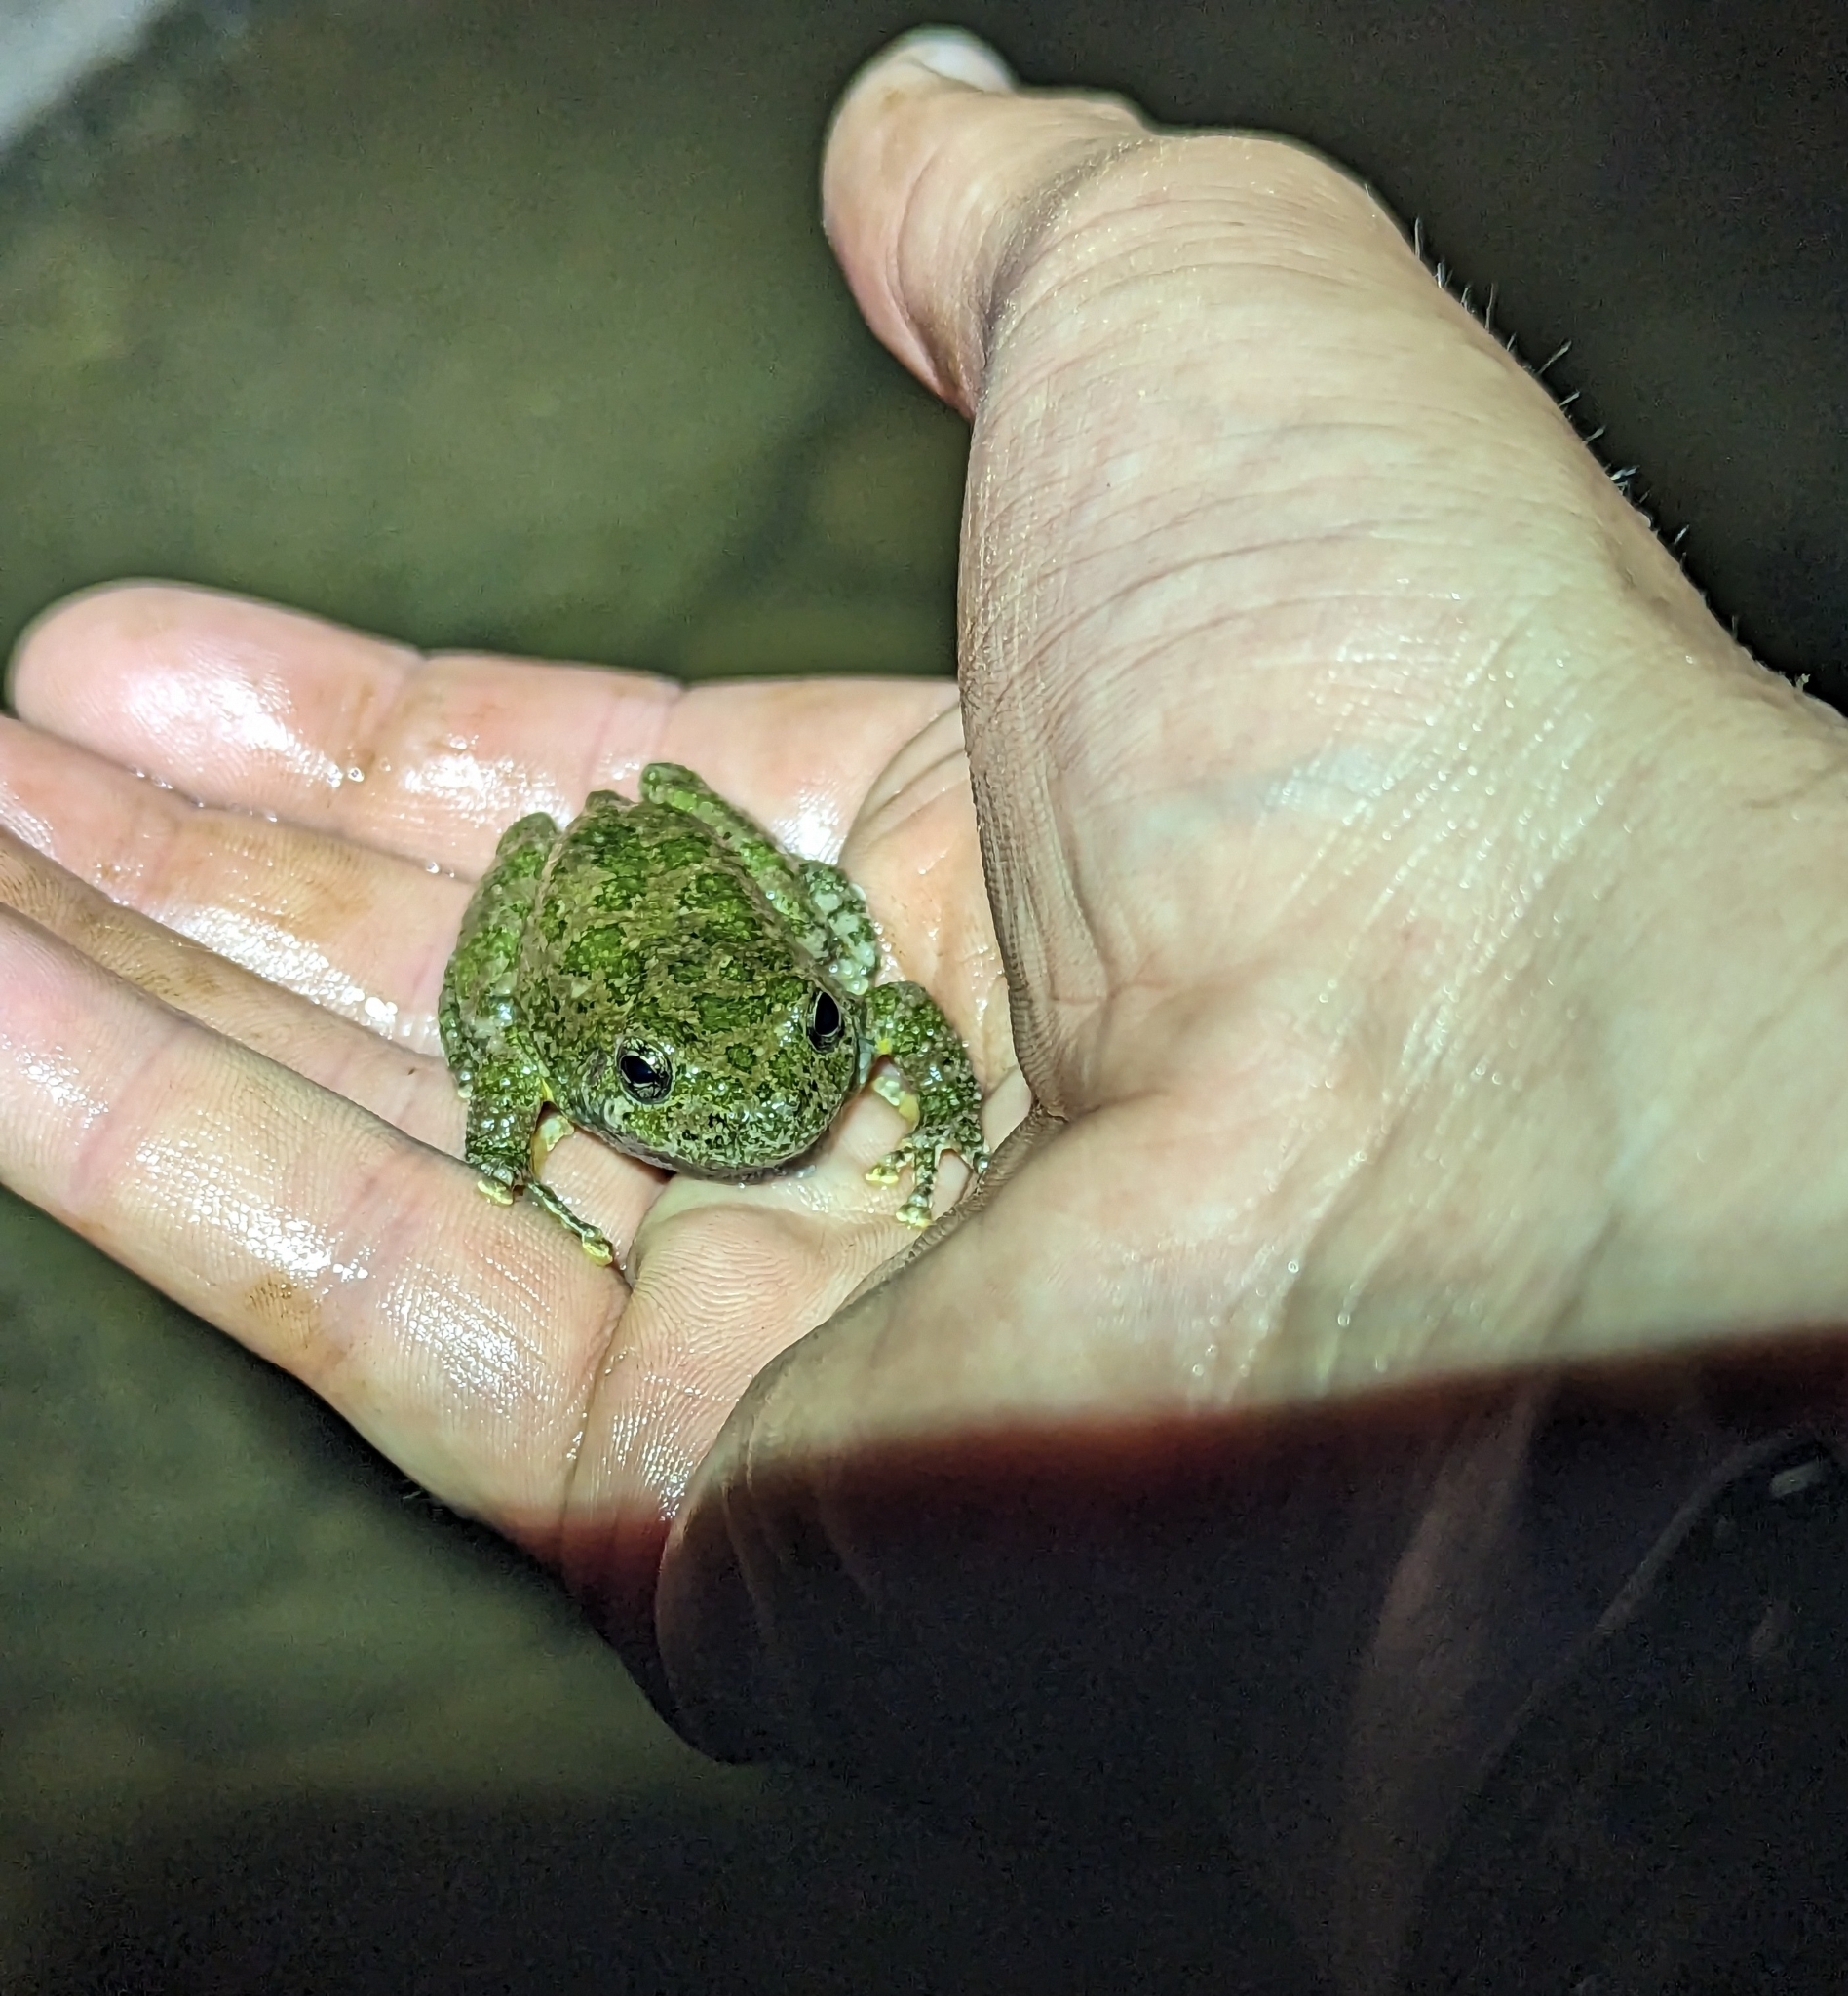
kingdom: Animalia
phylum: Chordata
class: Amphibia
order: Anura
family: Hylidae
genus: Dryophytes
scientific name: Dryophytes arenicolor
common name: Canyon treefrog
